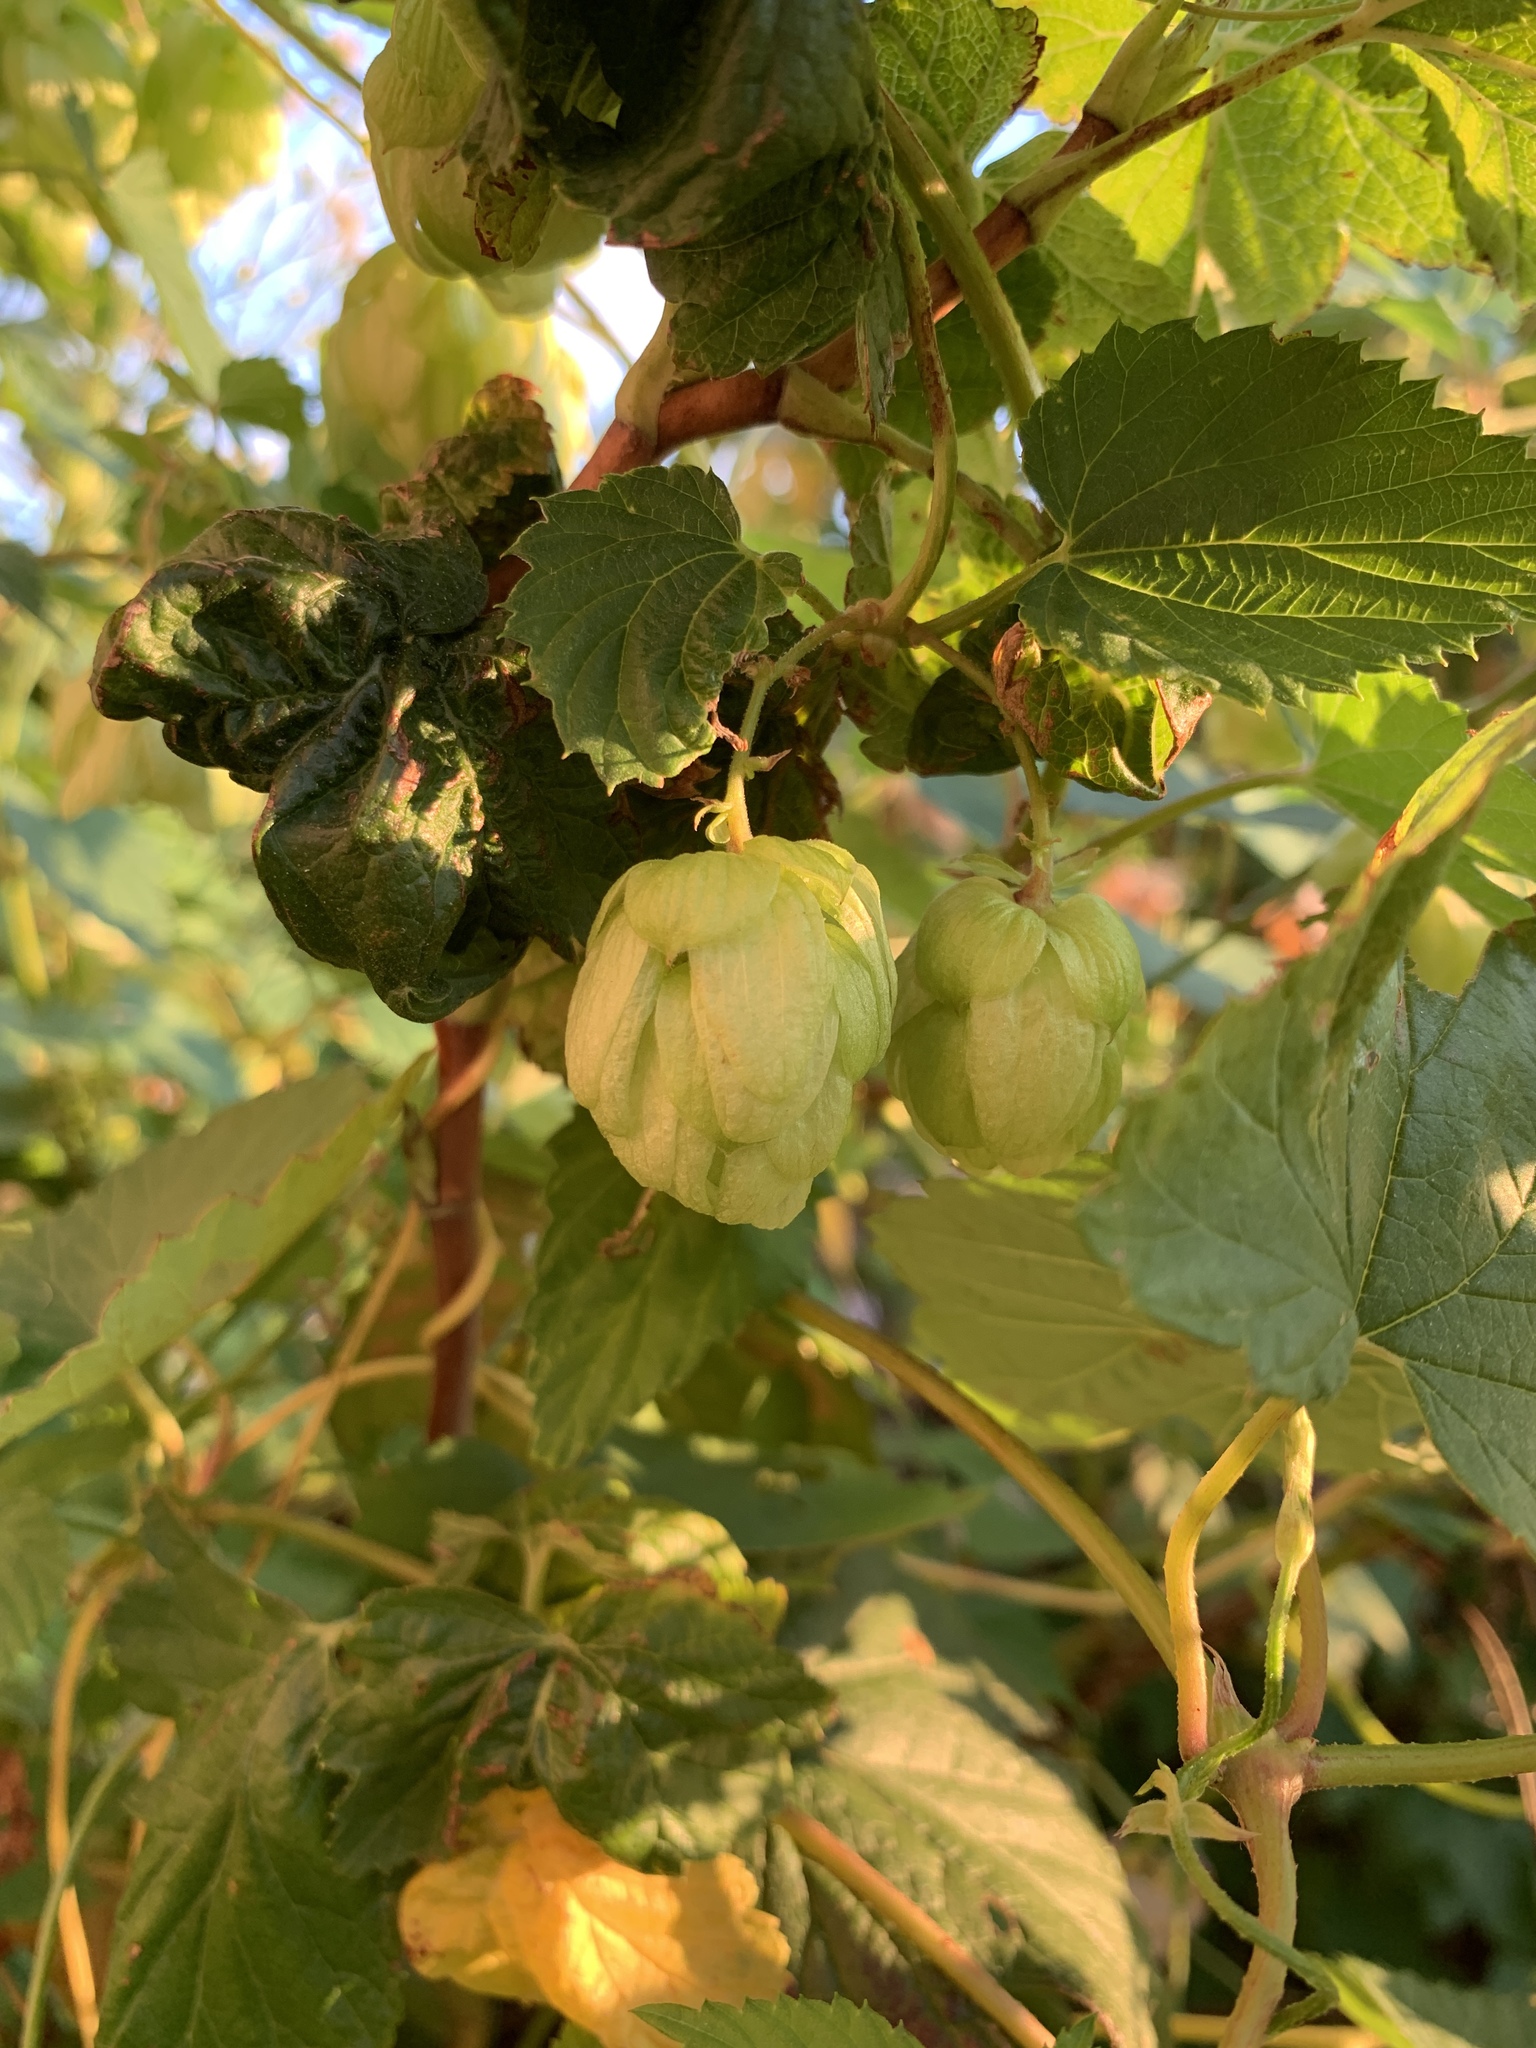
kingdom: Plantae
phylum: Tracheophyta
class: Magnoliopsida
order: Rosales
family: Cannabaceae
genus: Humulus
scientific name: Humulus lupulus
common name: Hop
